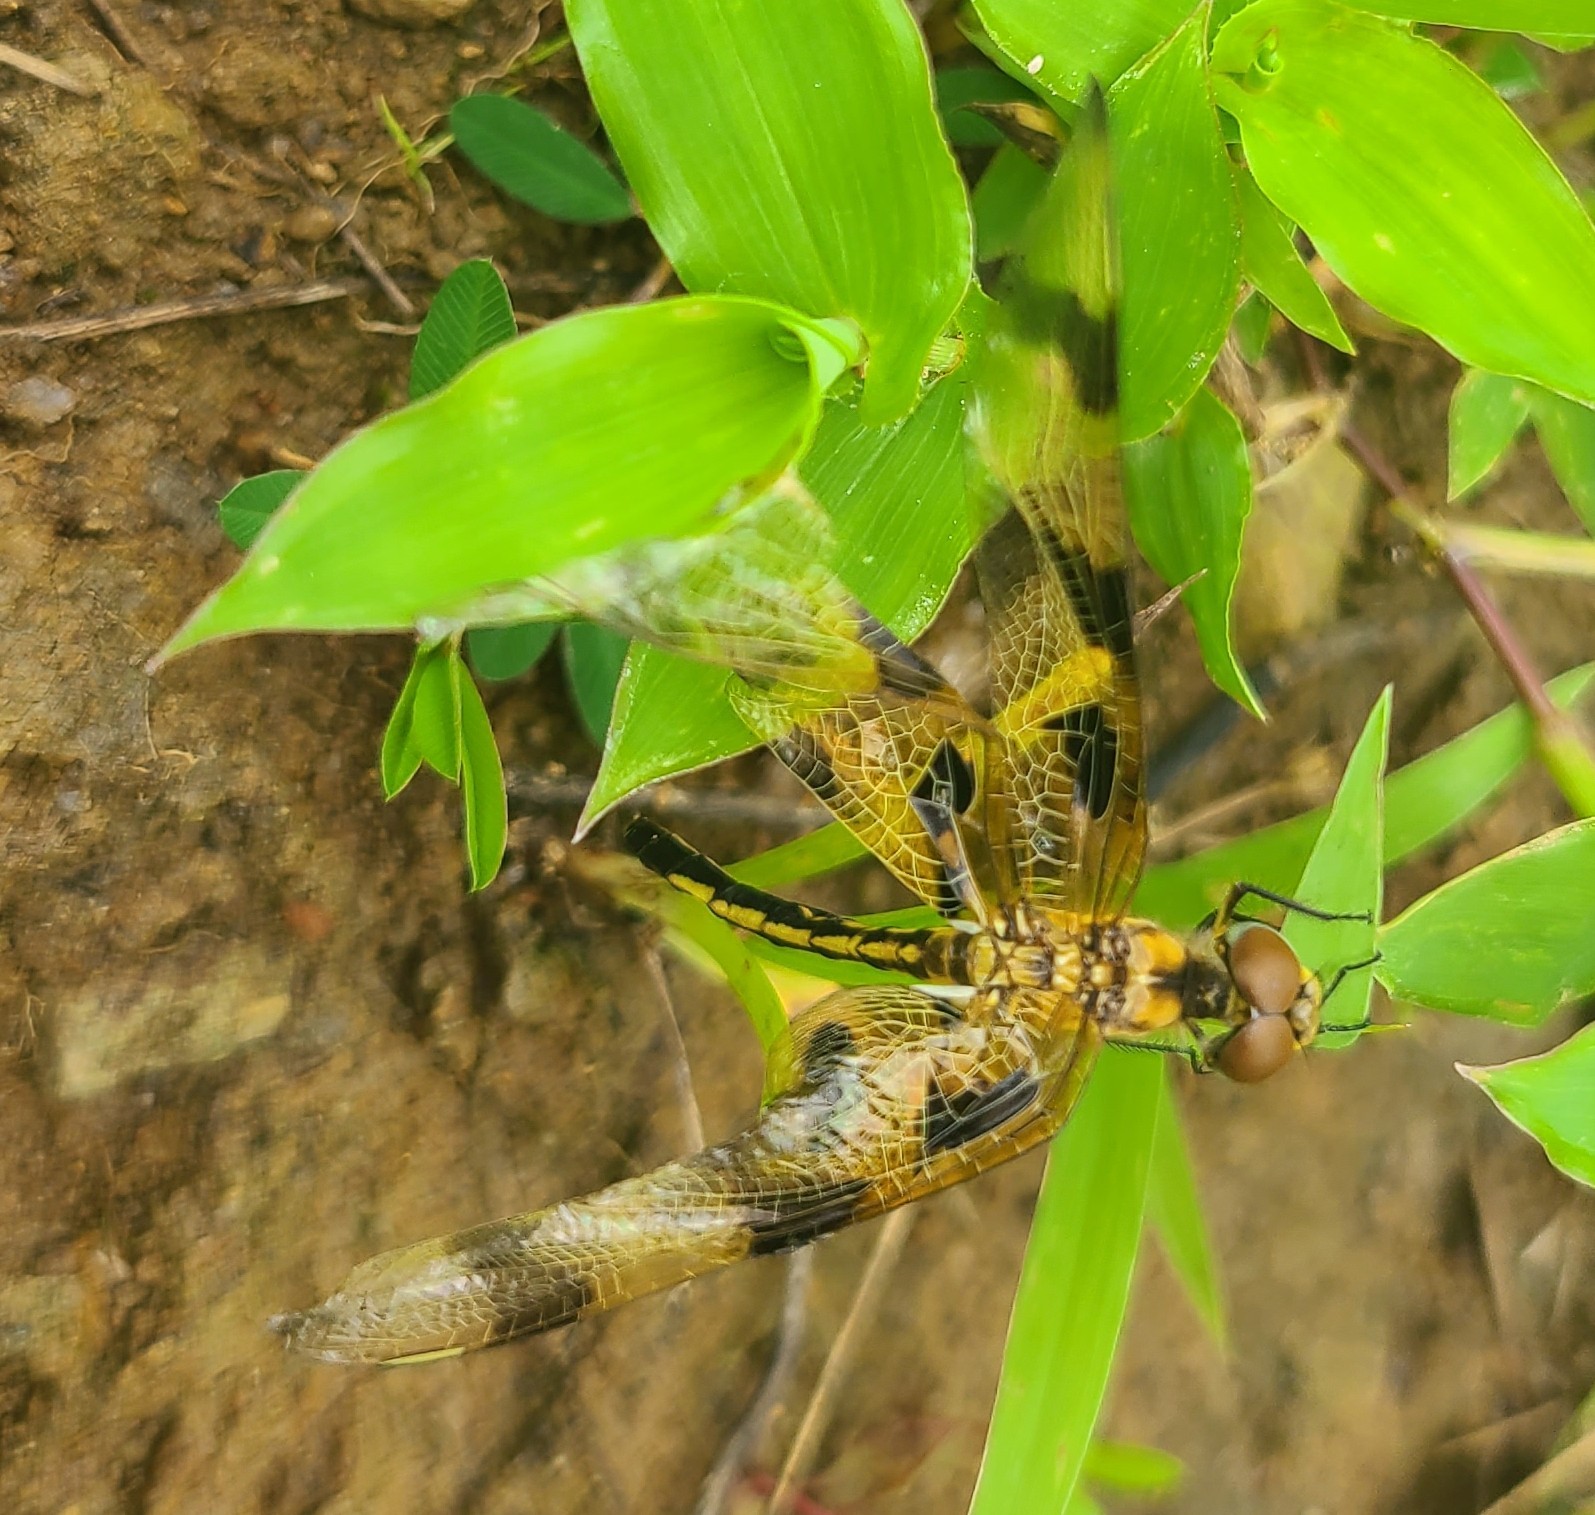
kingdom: Animalia
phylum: Arthropoda
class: Insecta
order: Odonata
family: Libellulidae
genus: Celithemis
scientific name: Celithemis eponina
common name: Halloween pennant
